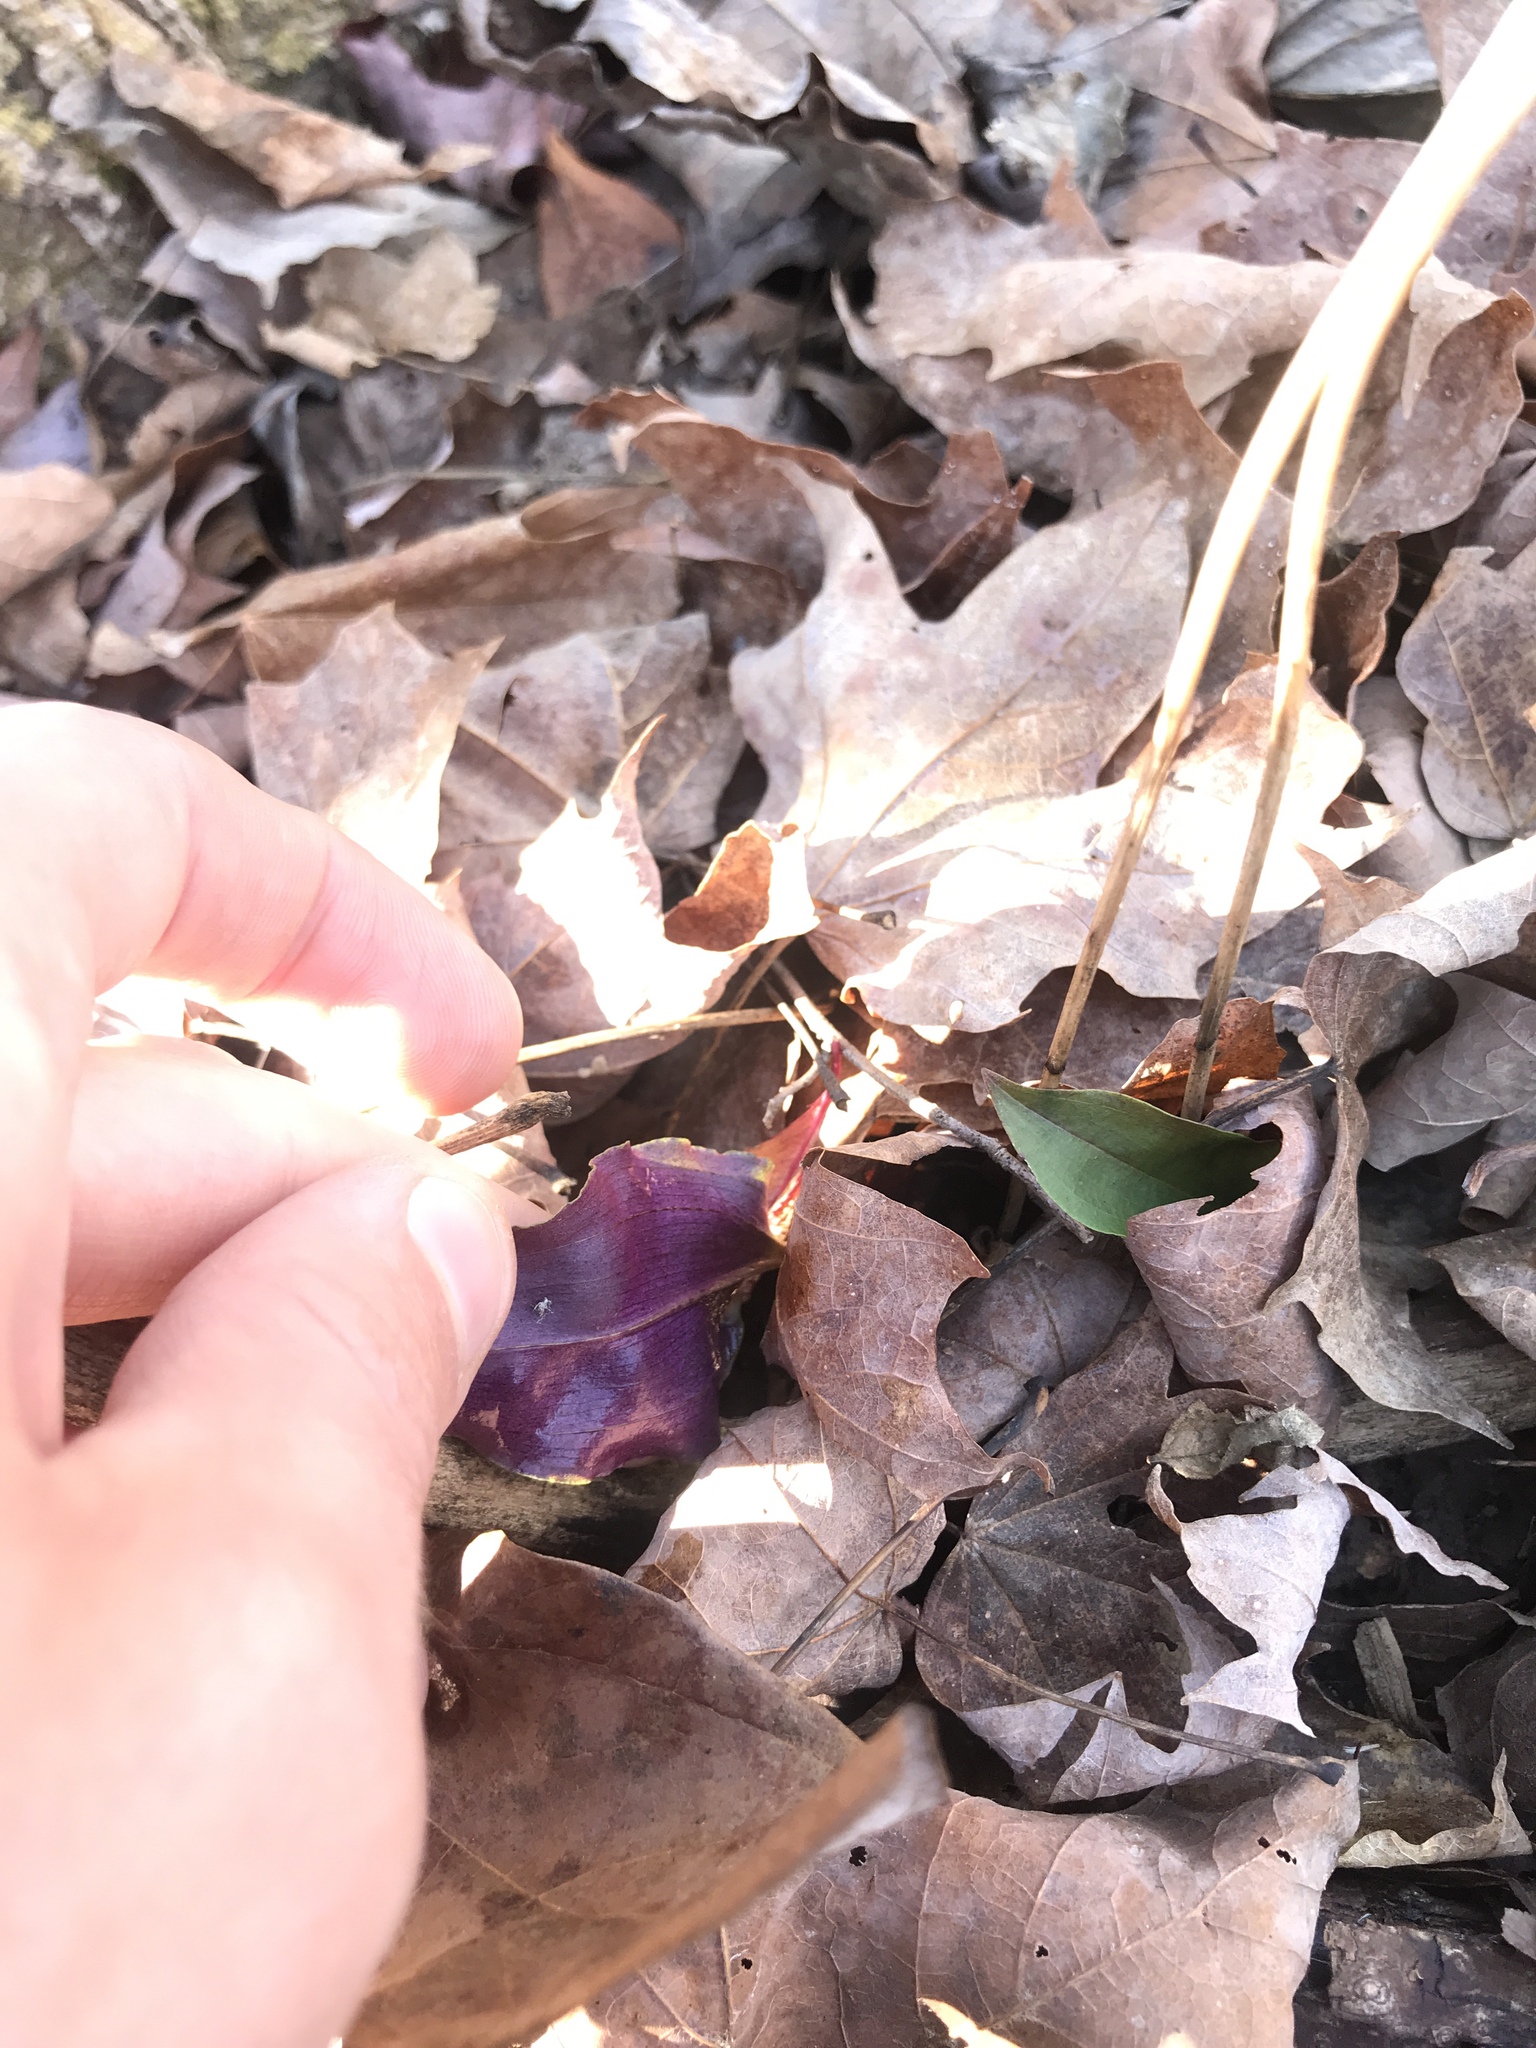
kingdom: Plantae
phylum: Tracheophyta
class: Liliopsida
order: Asparagales
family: Orchidaceae
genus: Tipularia
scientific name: Tipularia discolor
